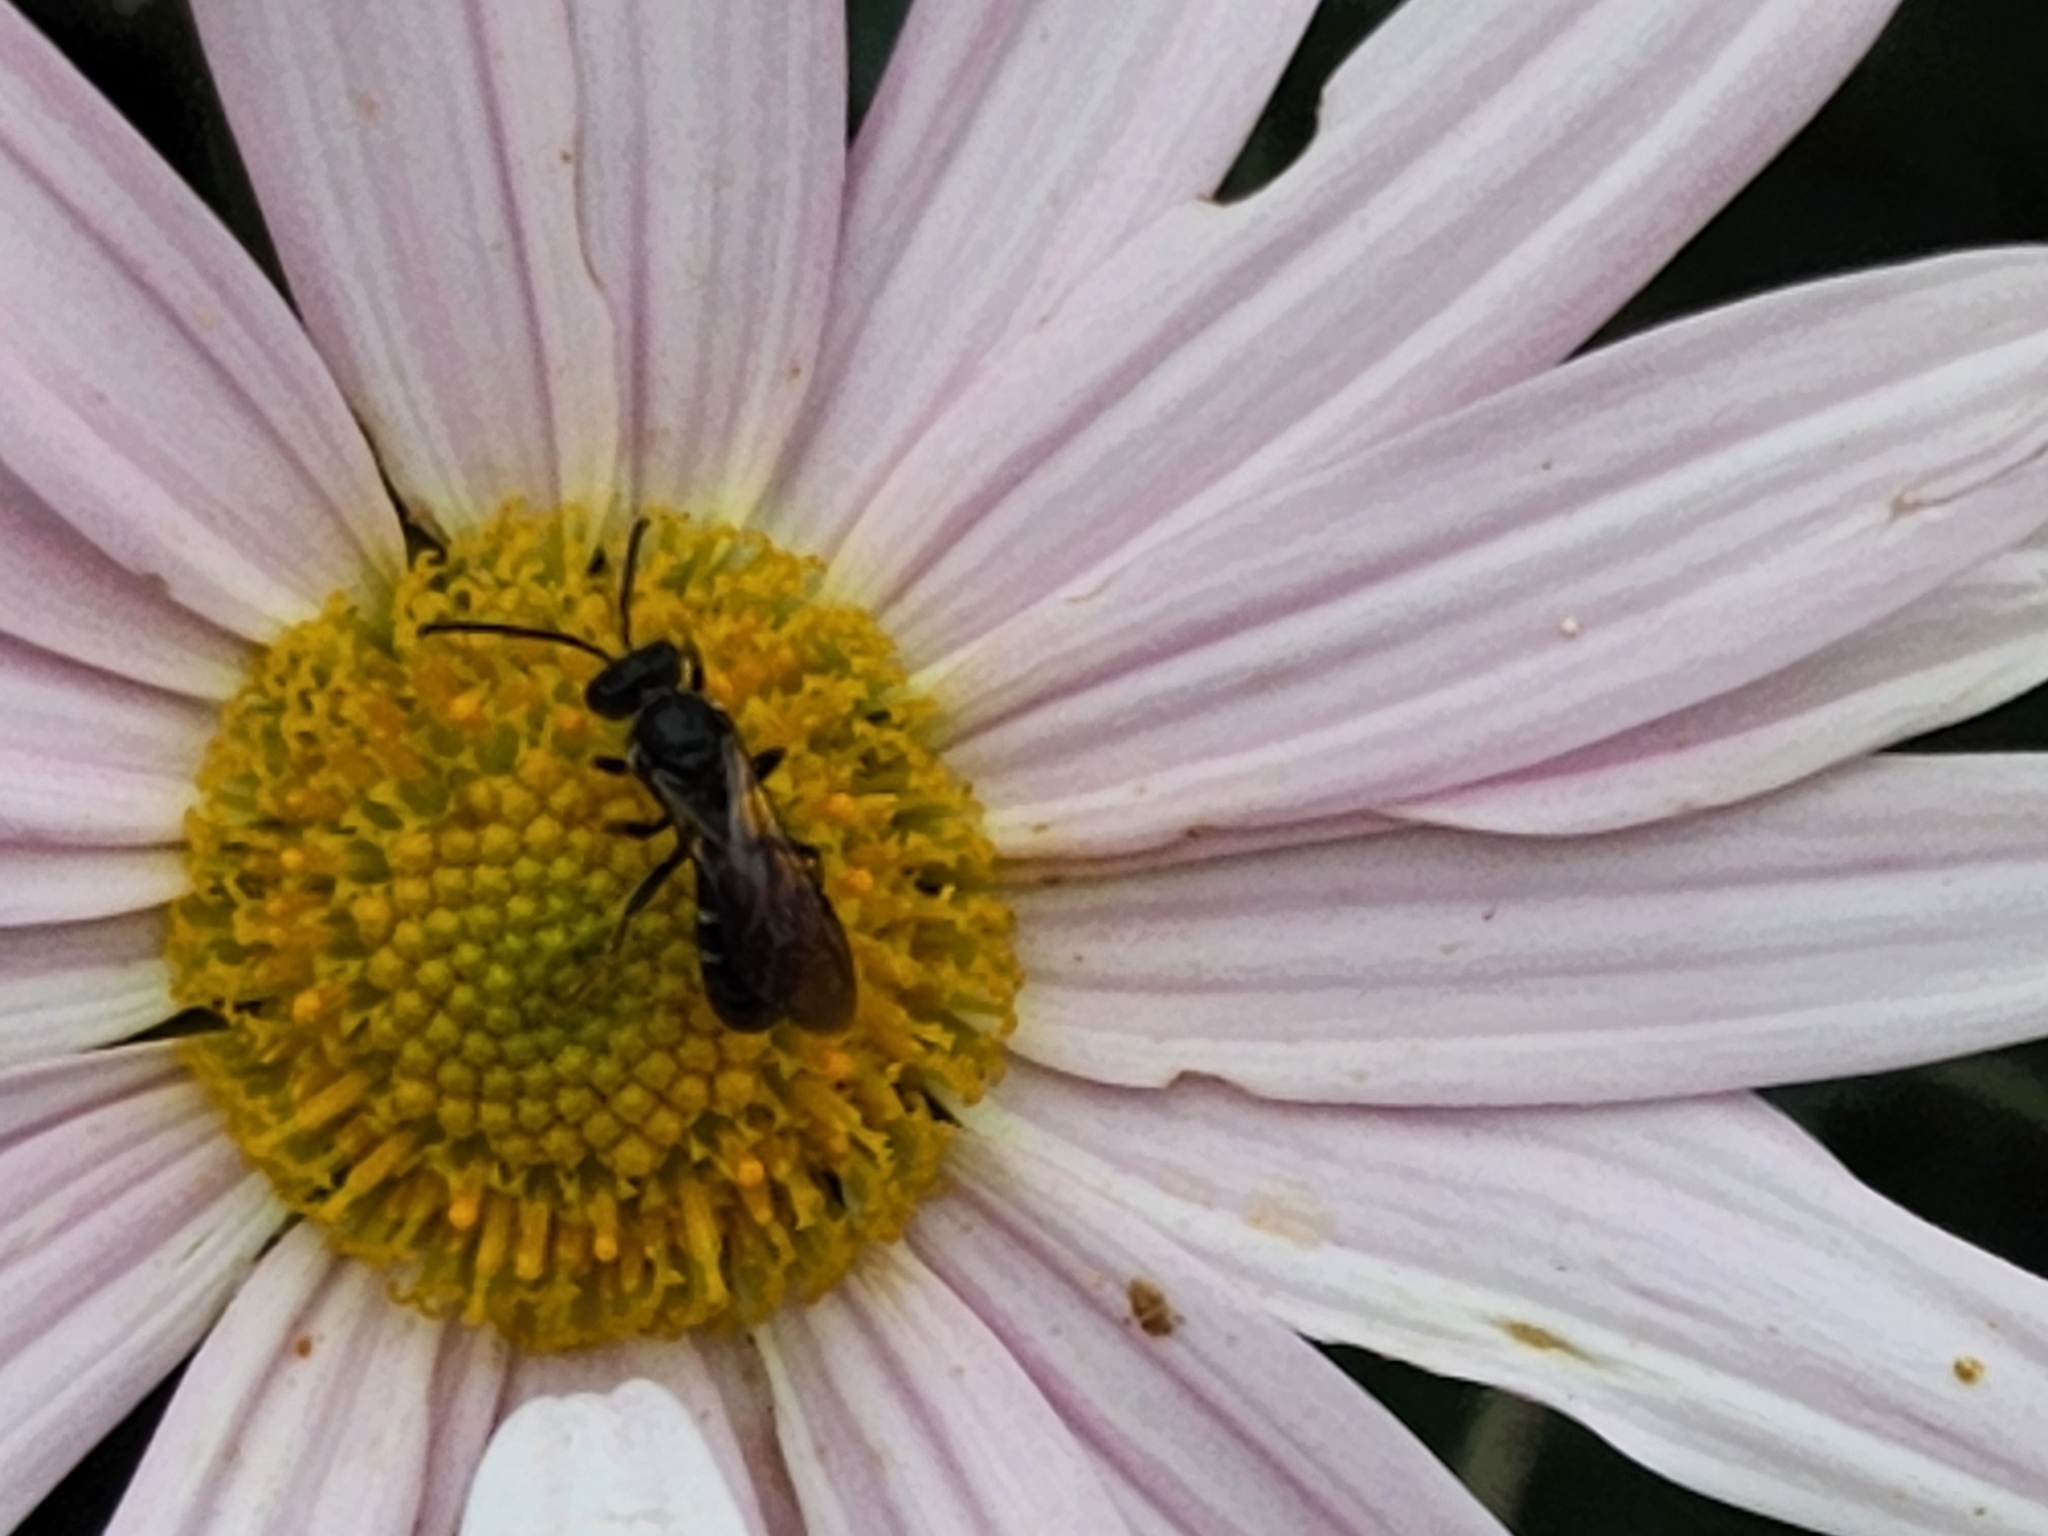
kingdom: Animalia
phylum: Arthropoda
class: Insecta
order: Hymenoptera
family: Halictidae
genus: Lasioglossum
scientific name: Lasioglossum fuscipenne
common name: Brown-winged sweat bee
